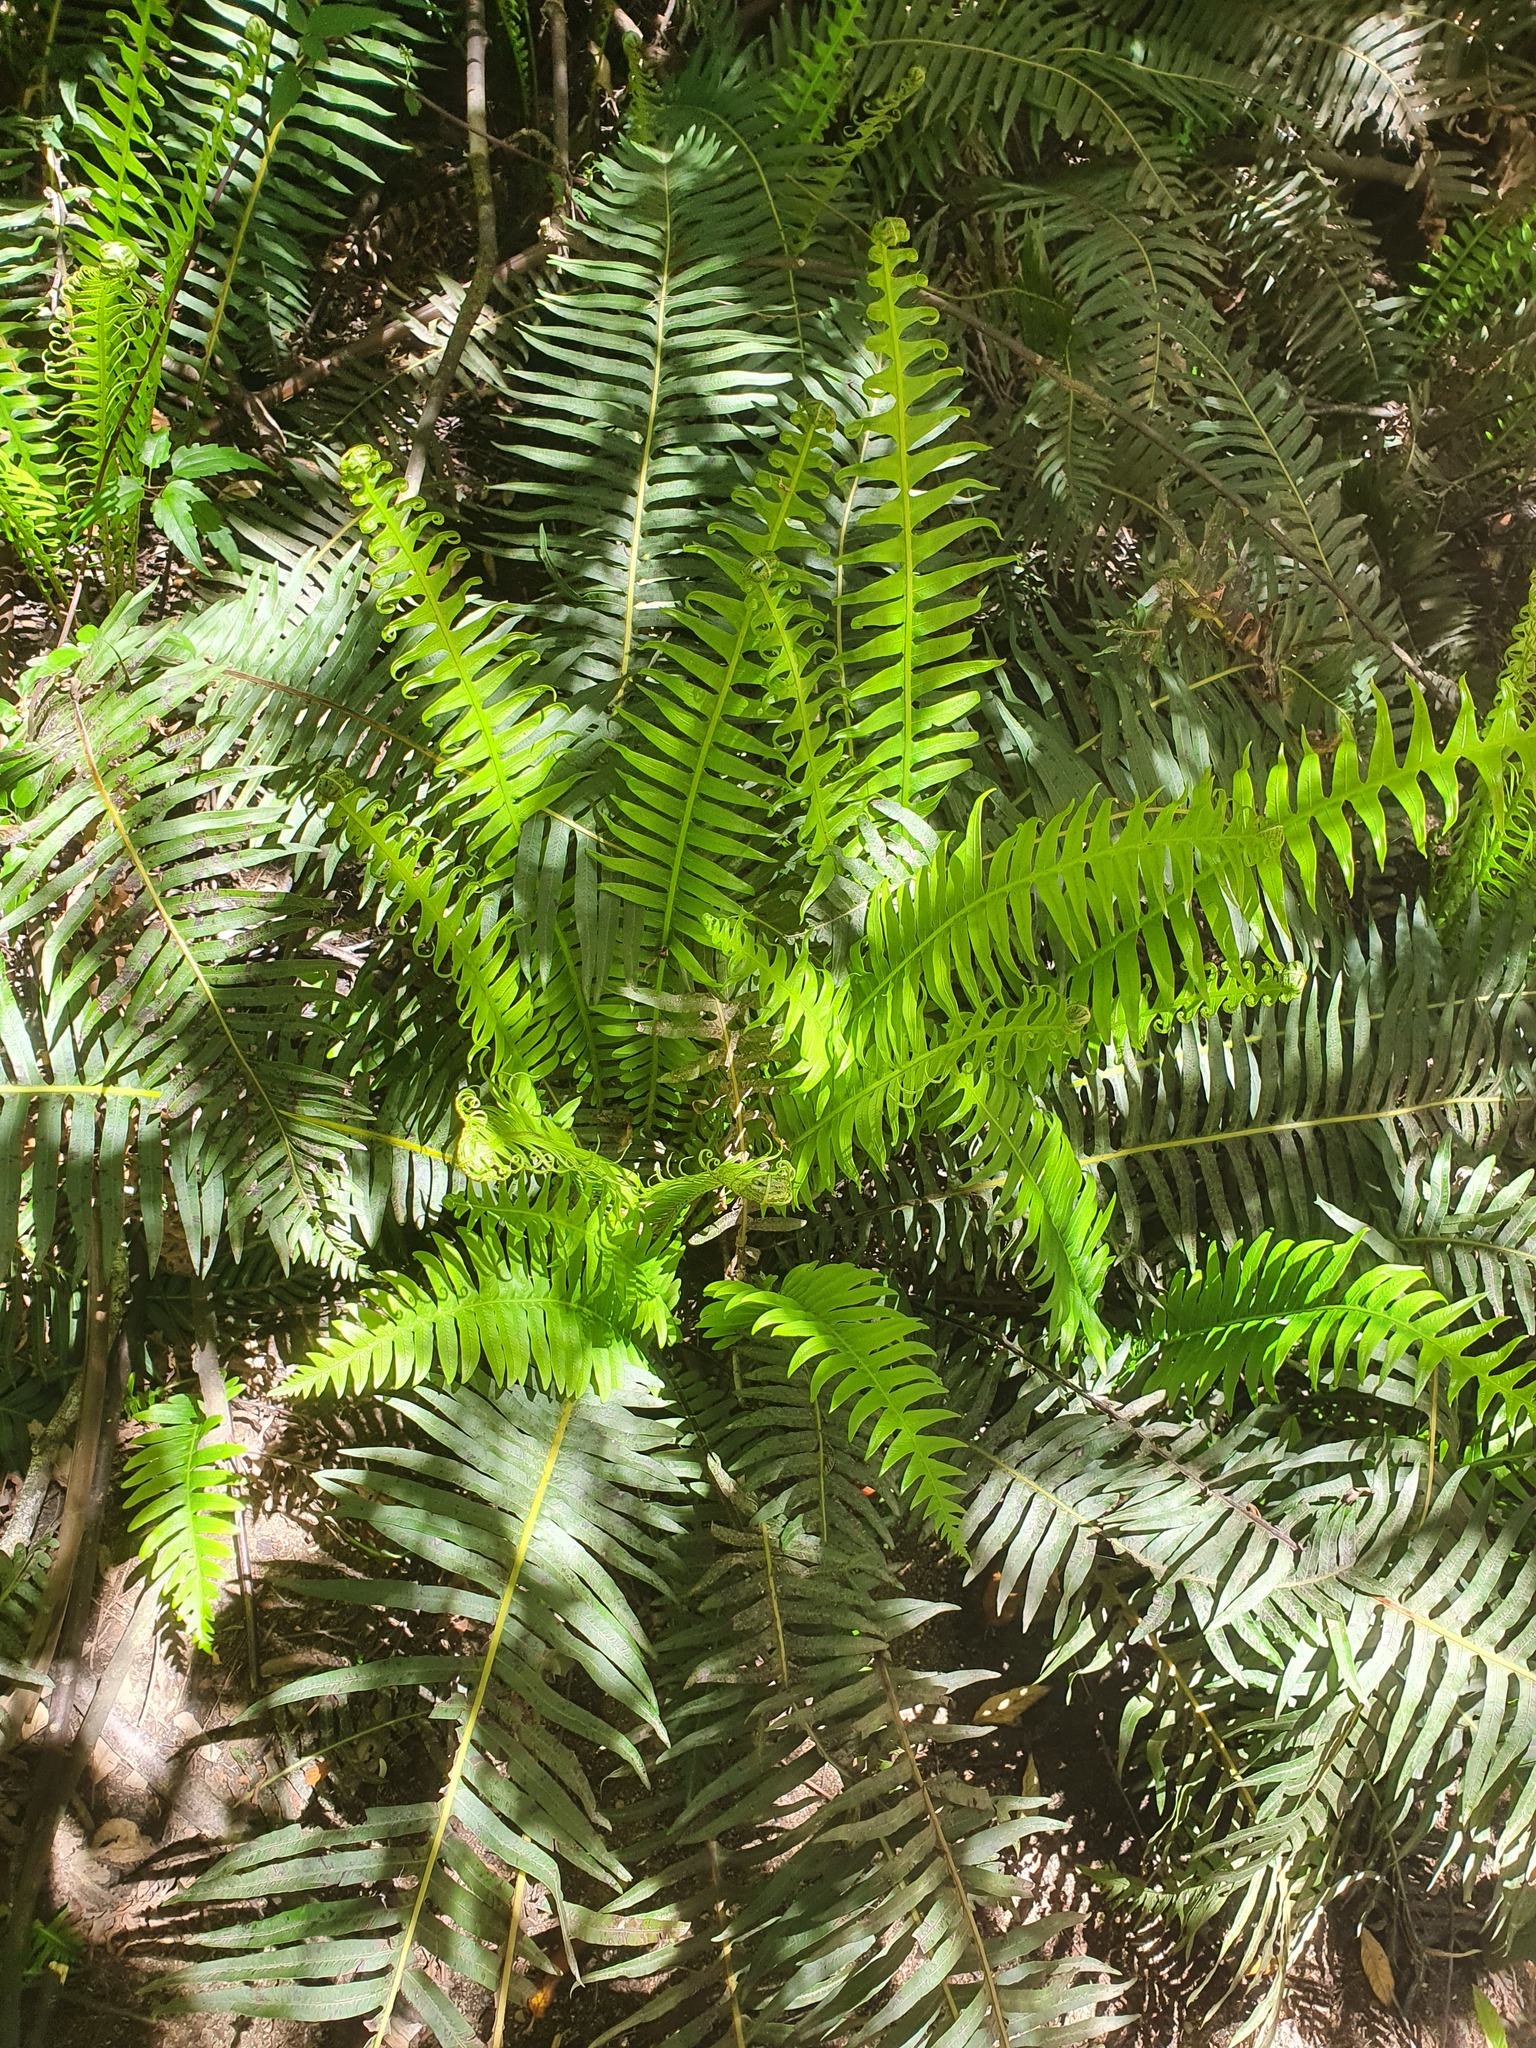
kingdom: Plantae
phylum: Tracheophyta
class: Polypodiopsida
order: Polypodiales
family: Blechnaceae
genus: Lomaria
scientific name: Lomaria nuda
